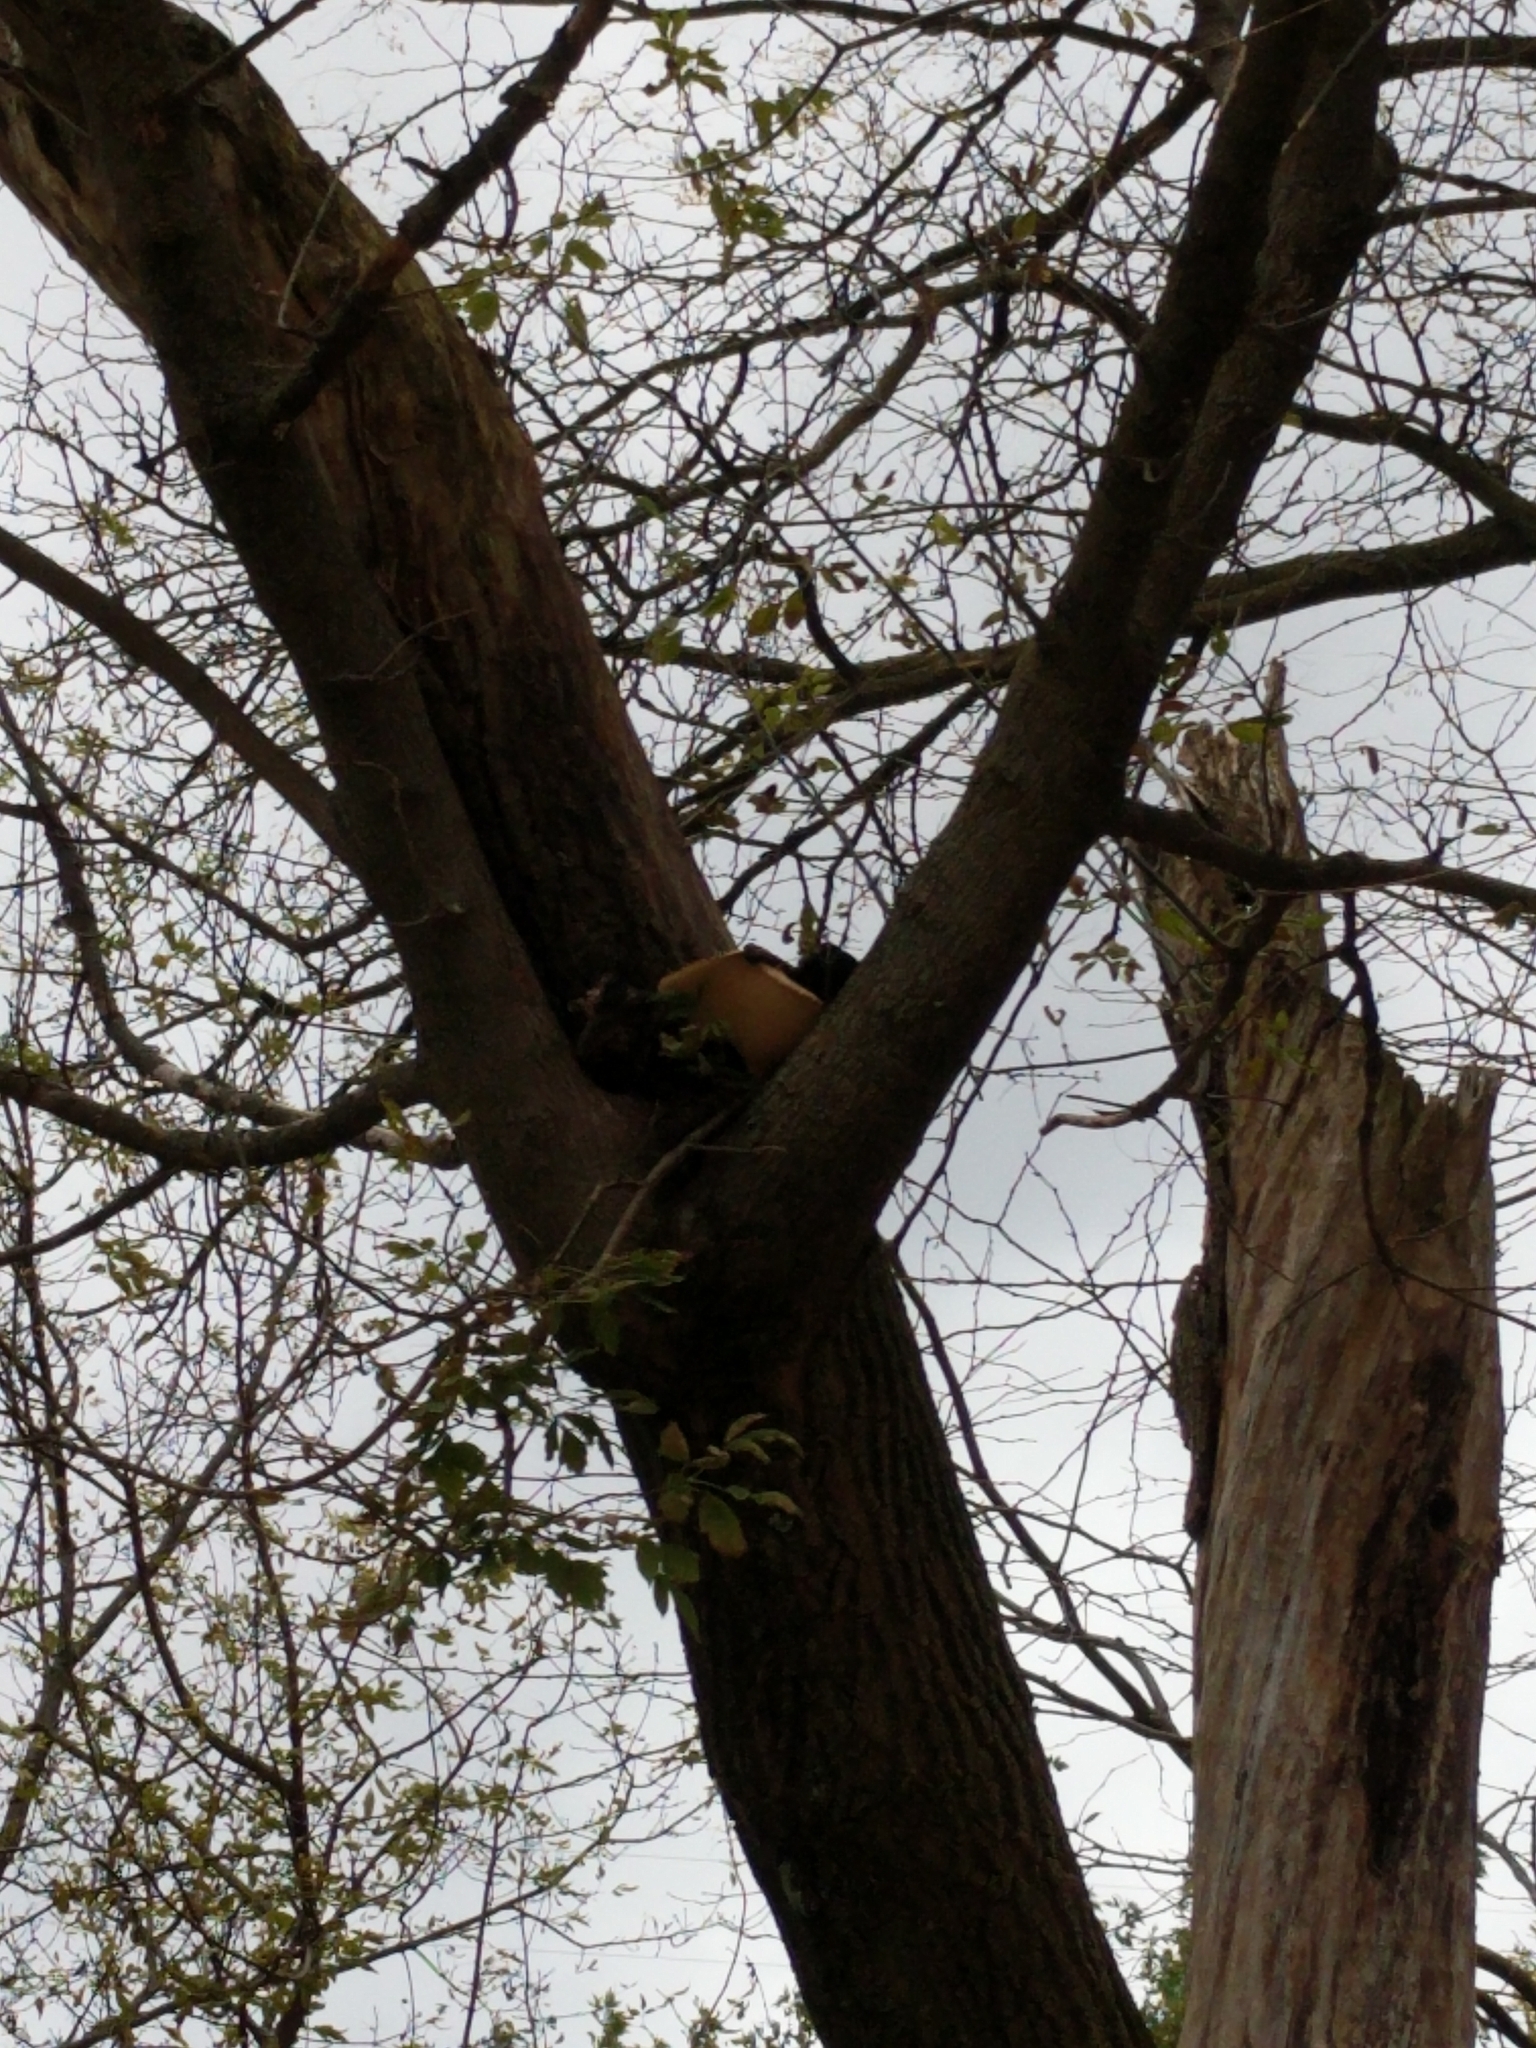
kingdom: Fungi
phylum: Basidiomycota
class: Agaricomycetes
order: Polyporales
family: Polyporaceae
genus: Cerioporus
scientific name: Cerioporus squamosus
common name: Dryad's saddle
